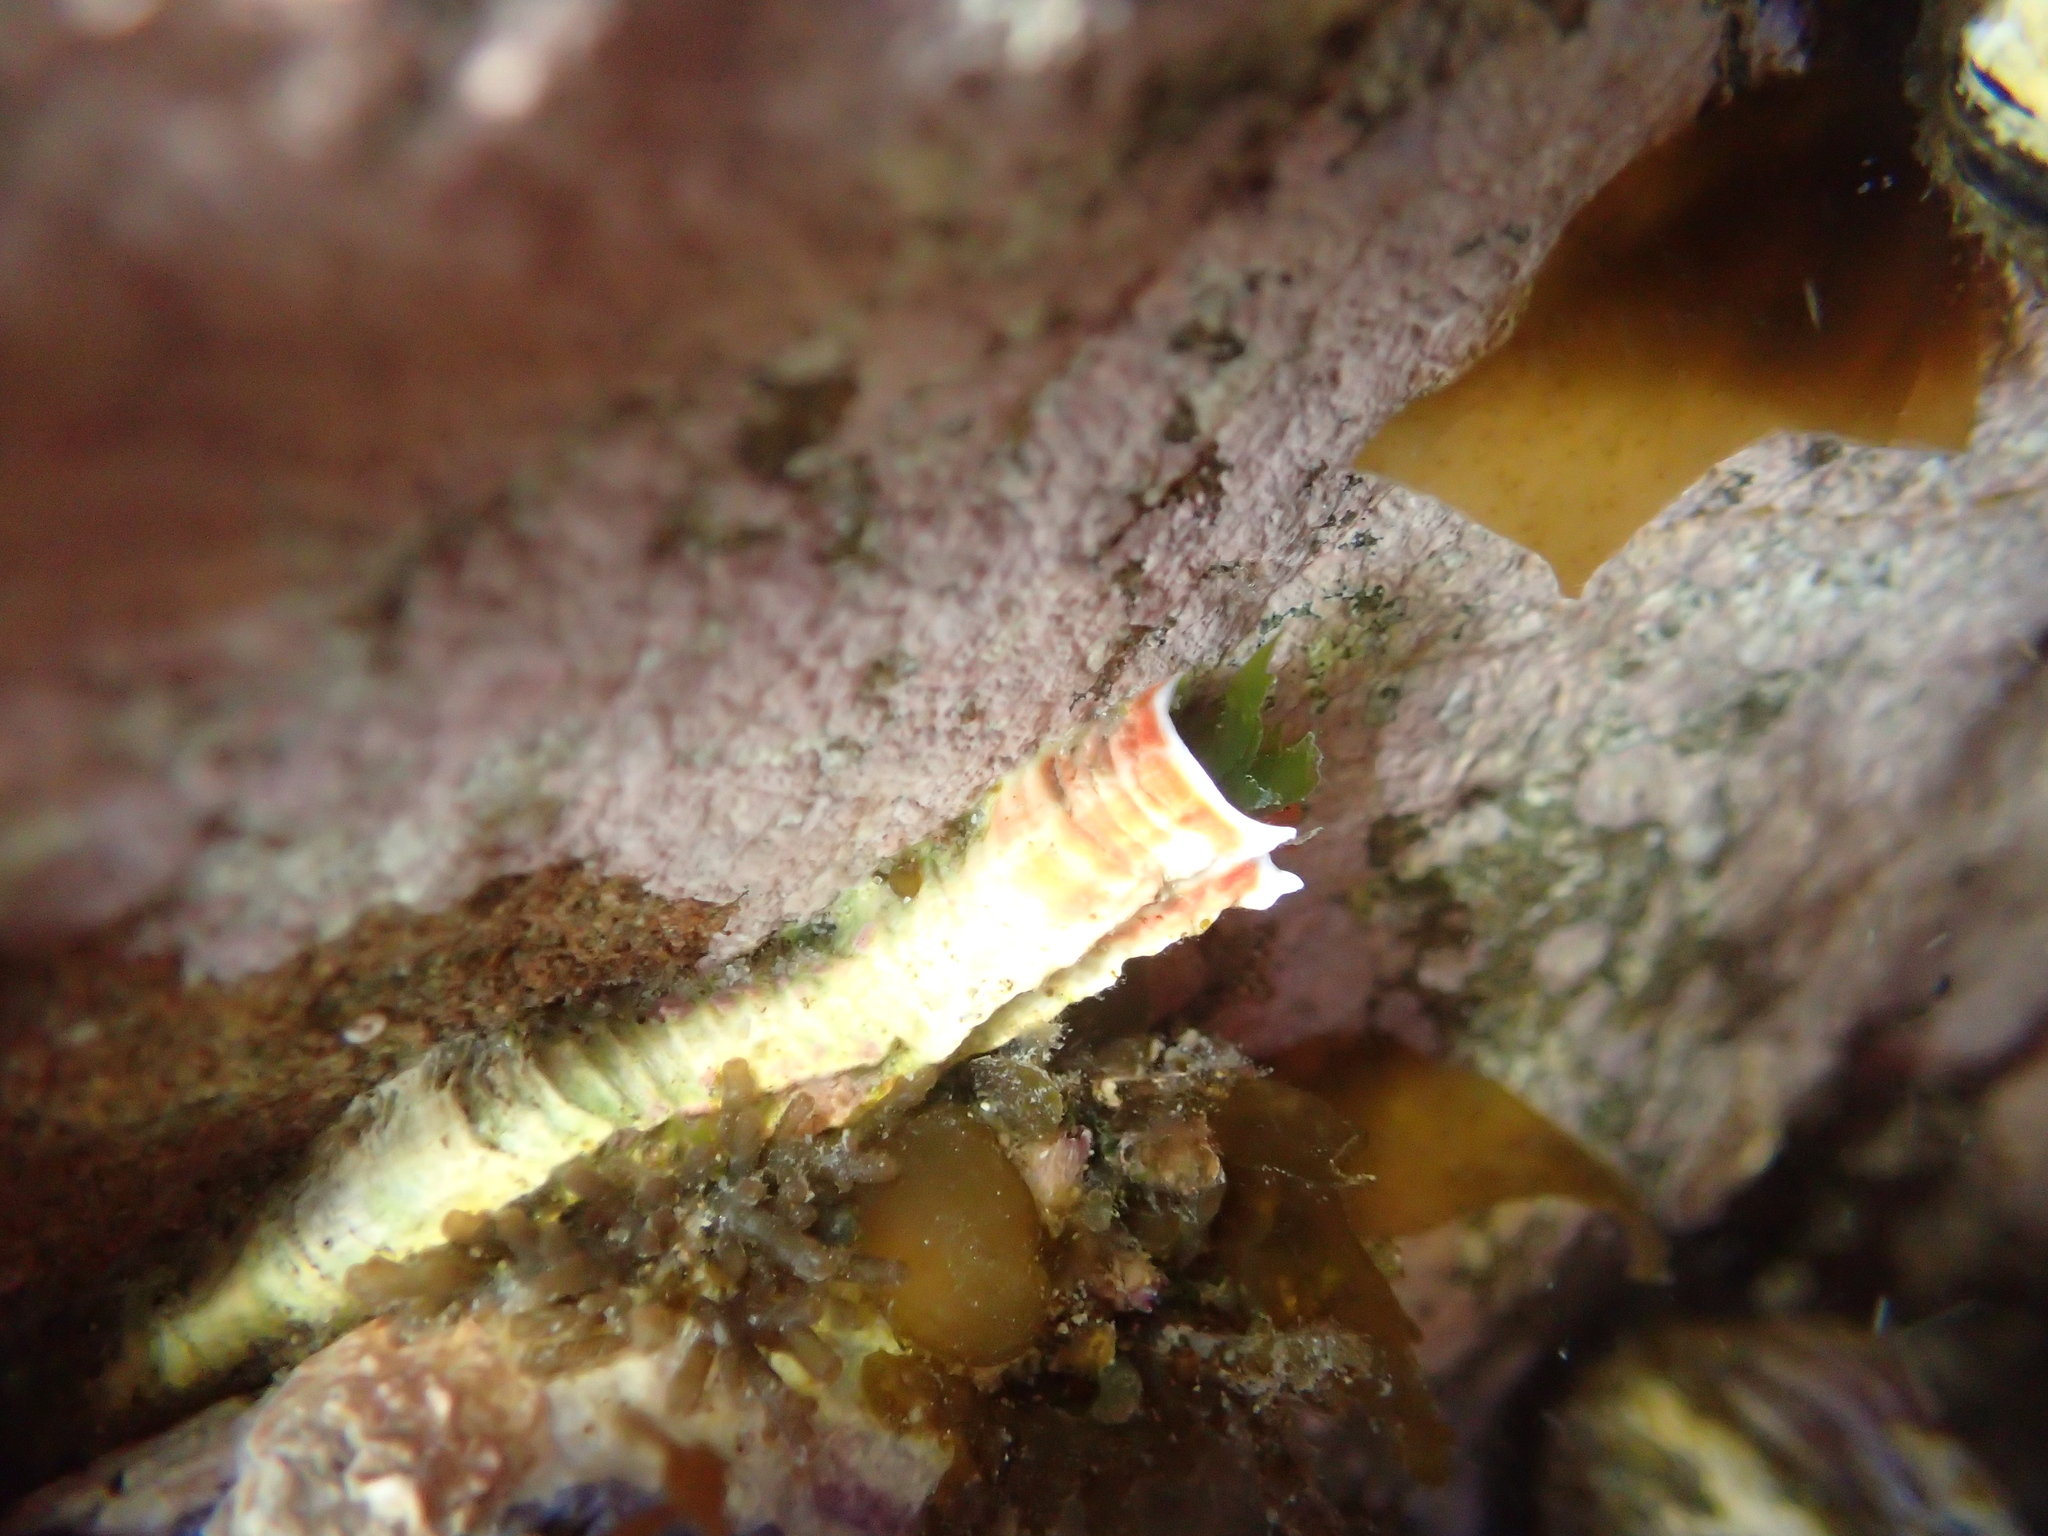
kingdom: Animalia
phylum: Annelida
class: Polychaeta
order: Sabellida
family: Serpulidae
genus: Galeolaria
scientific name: Galeolaria hystrix
